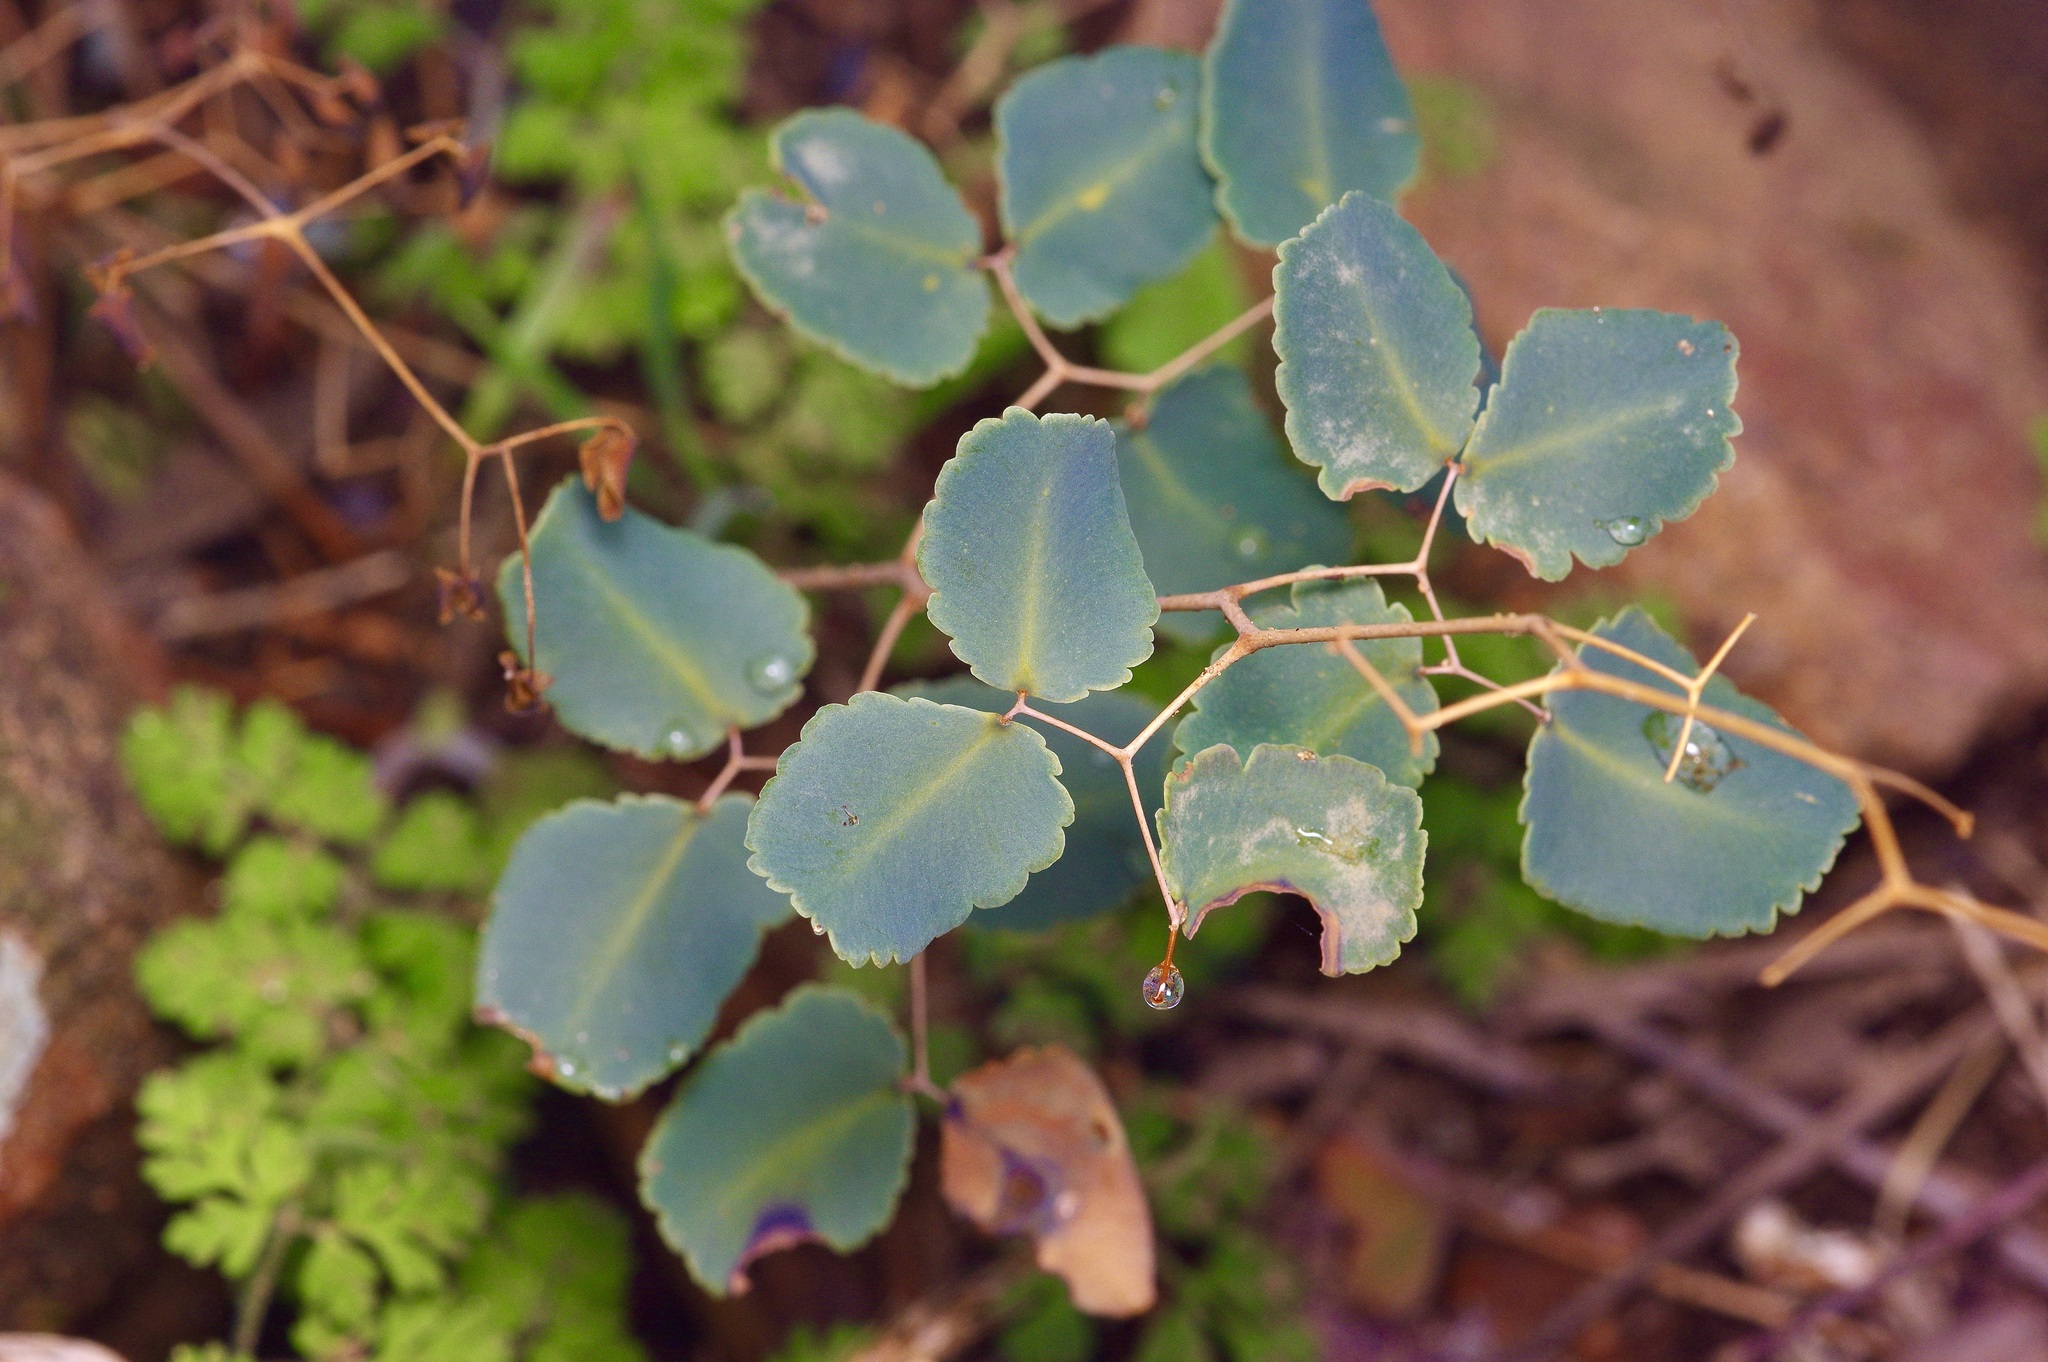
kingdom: Plantae
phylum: Tracheophyta
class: Polypodiopsida
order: Polypodiales
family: Pteridaceae
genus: Pellaea
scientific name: Pellaea ovata
